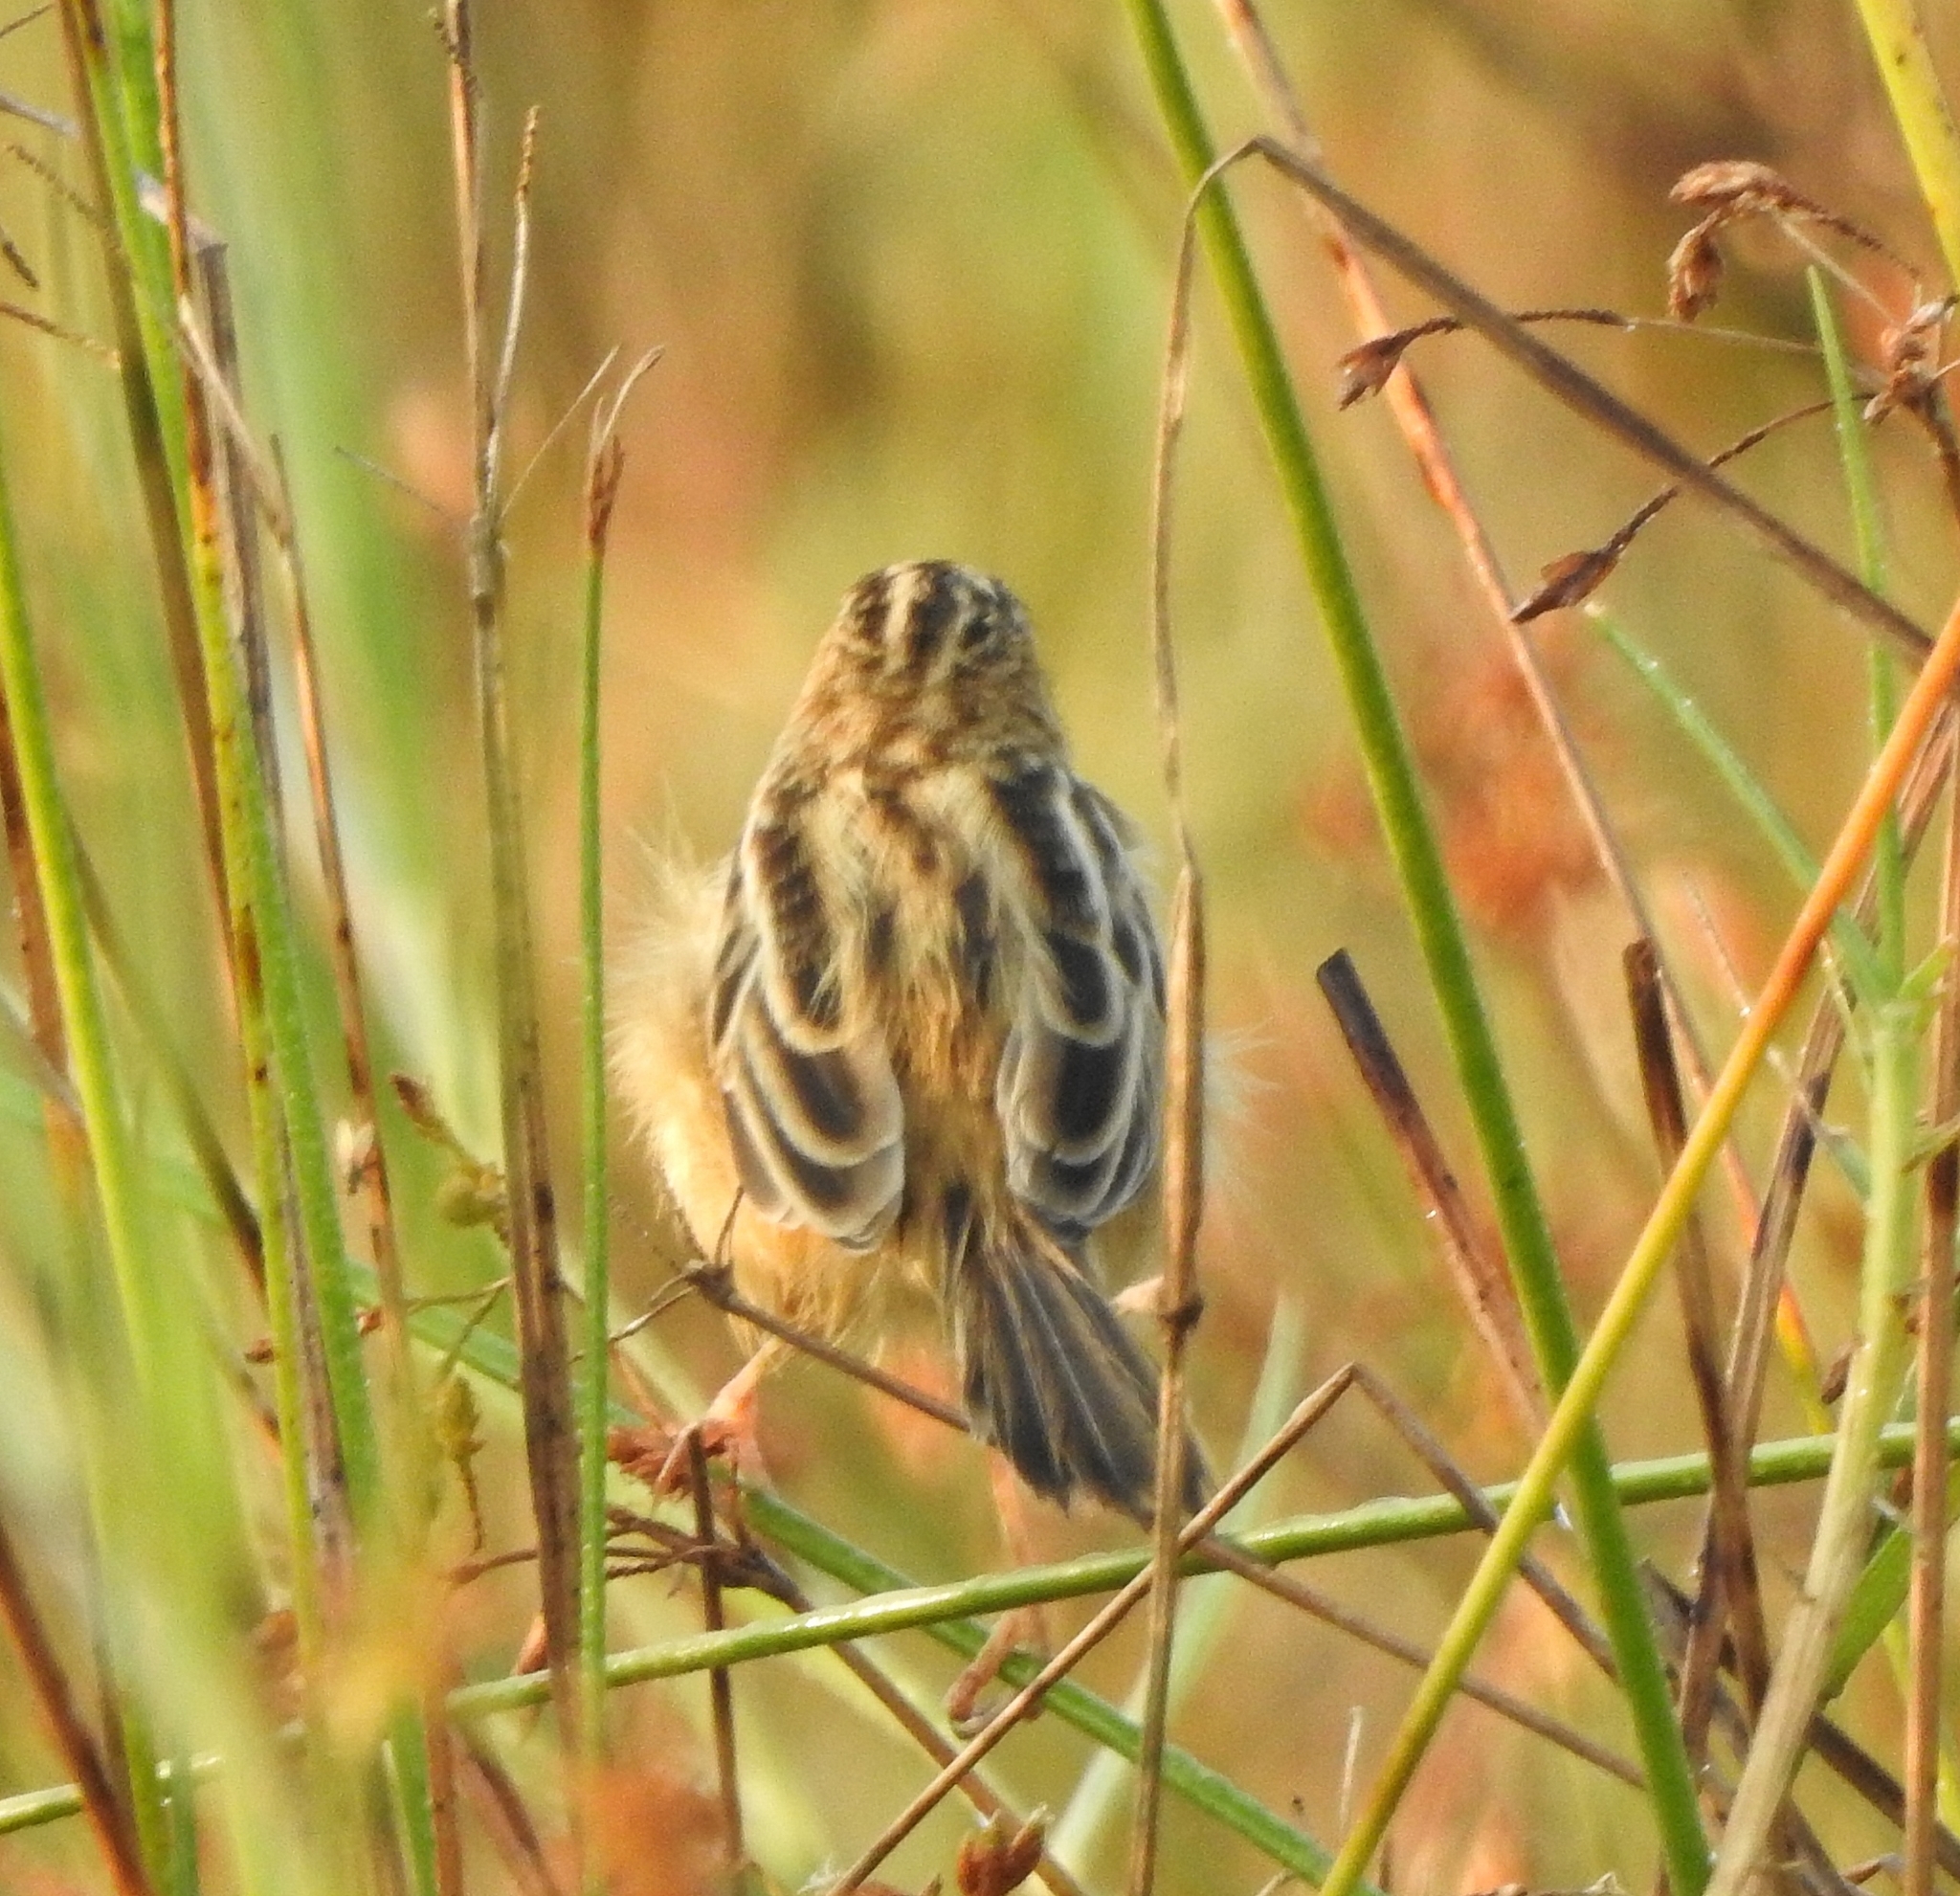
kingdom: Animalia
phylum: Chordata
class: Aves
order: Passeriformes
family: Cisticolidae
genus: Cisticola
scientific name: Cisticola juncidis
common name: Zitting cisticola
